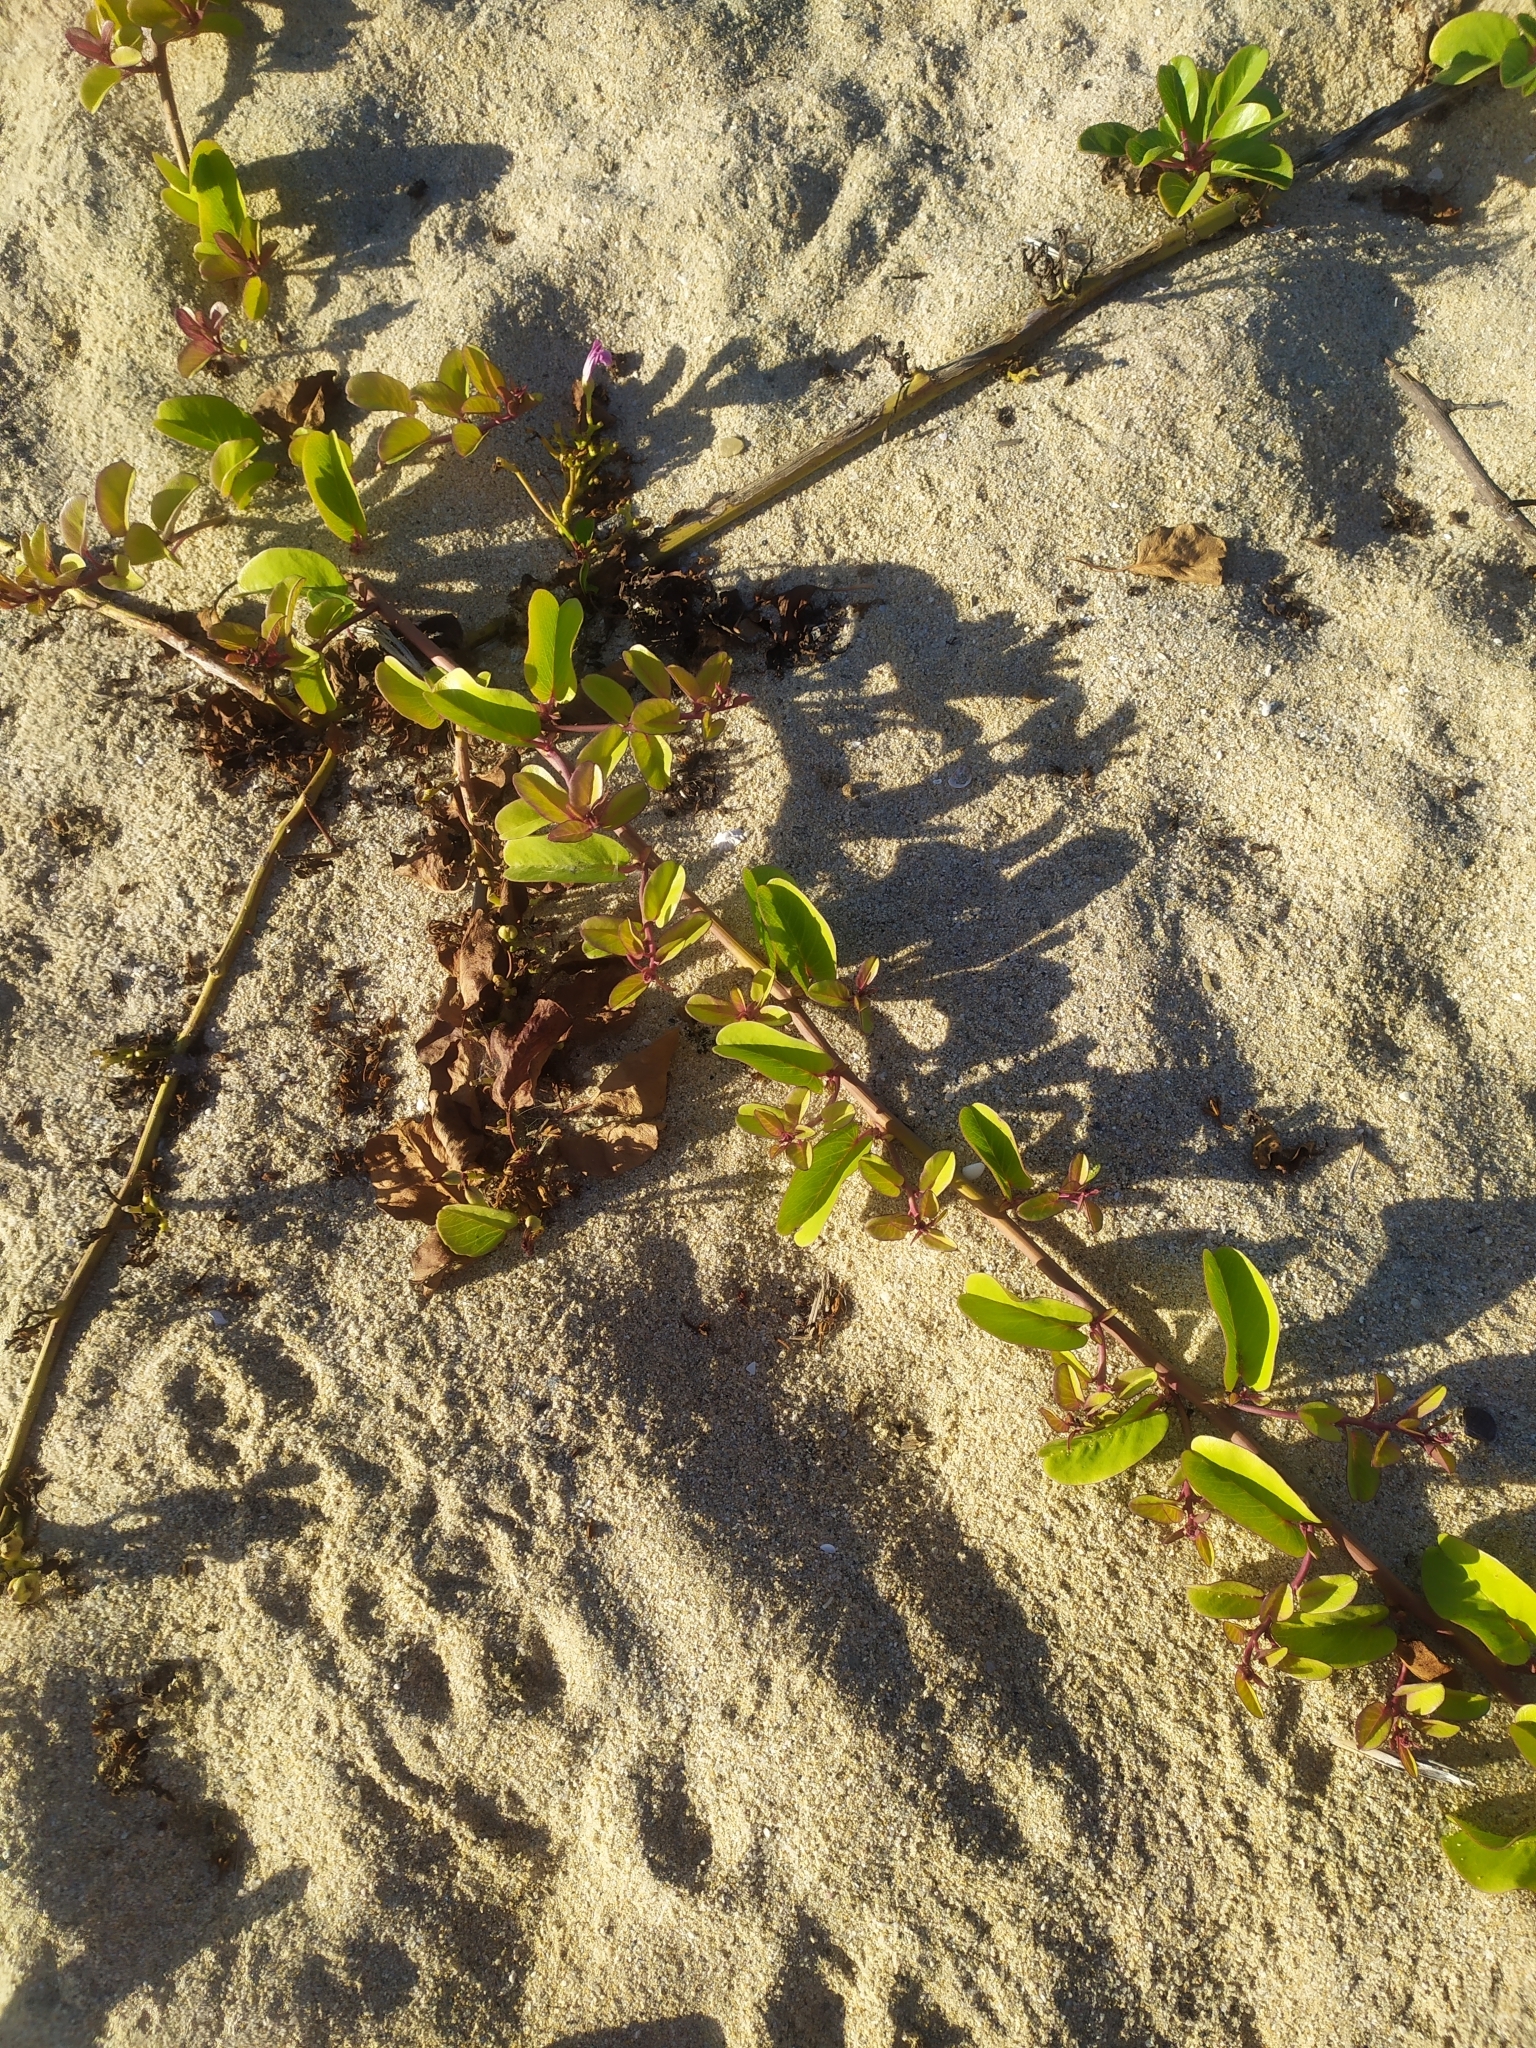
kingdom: Plantae
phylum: Tracheophyta
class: Magnoliopsida
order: Solanales
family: Convolvulaceae
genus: Ipomoea
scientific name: Ipomoea pes-caprae
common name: Beach morning glory
